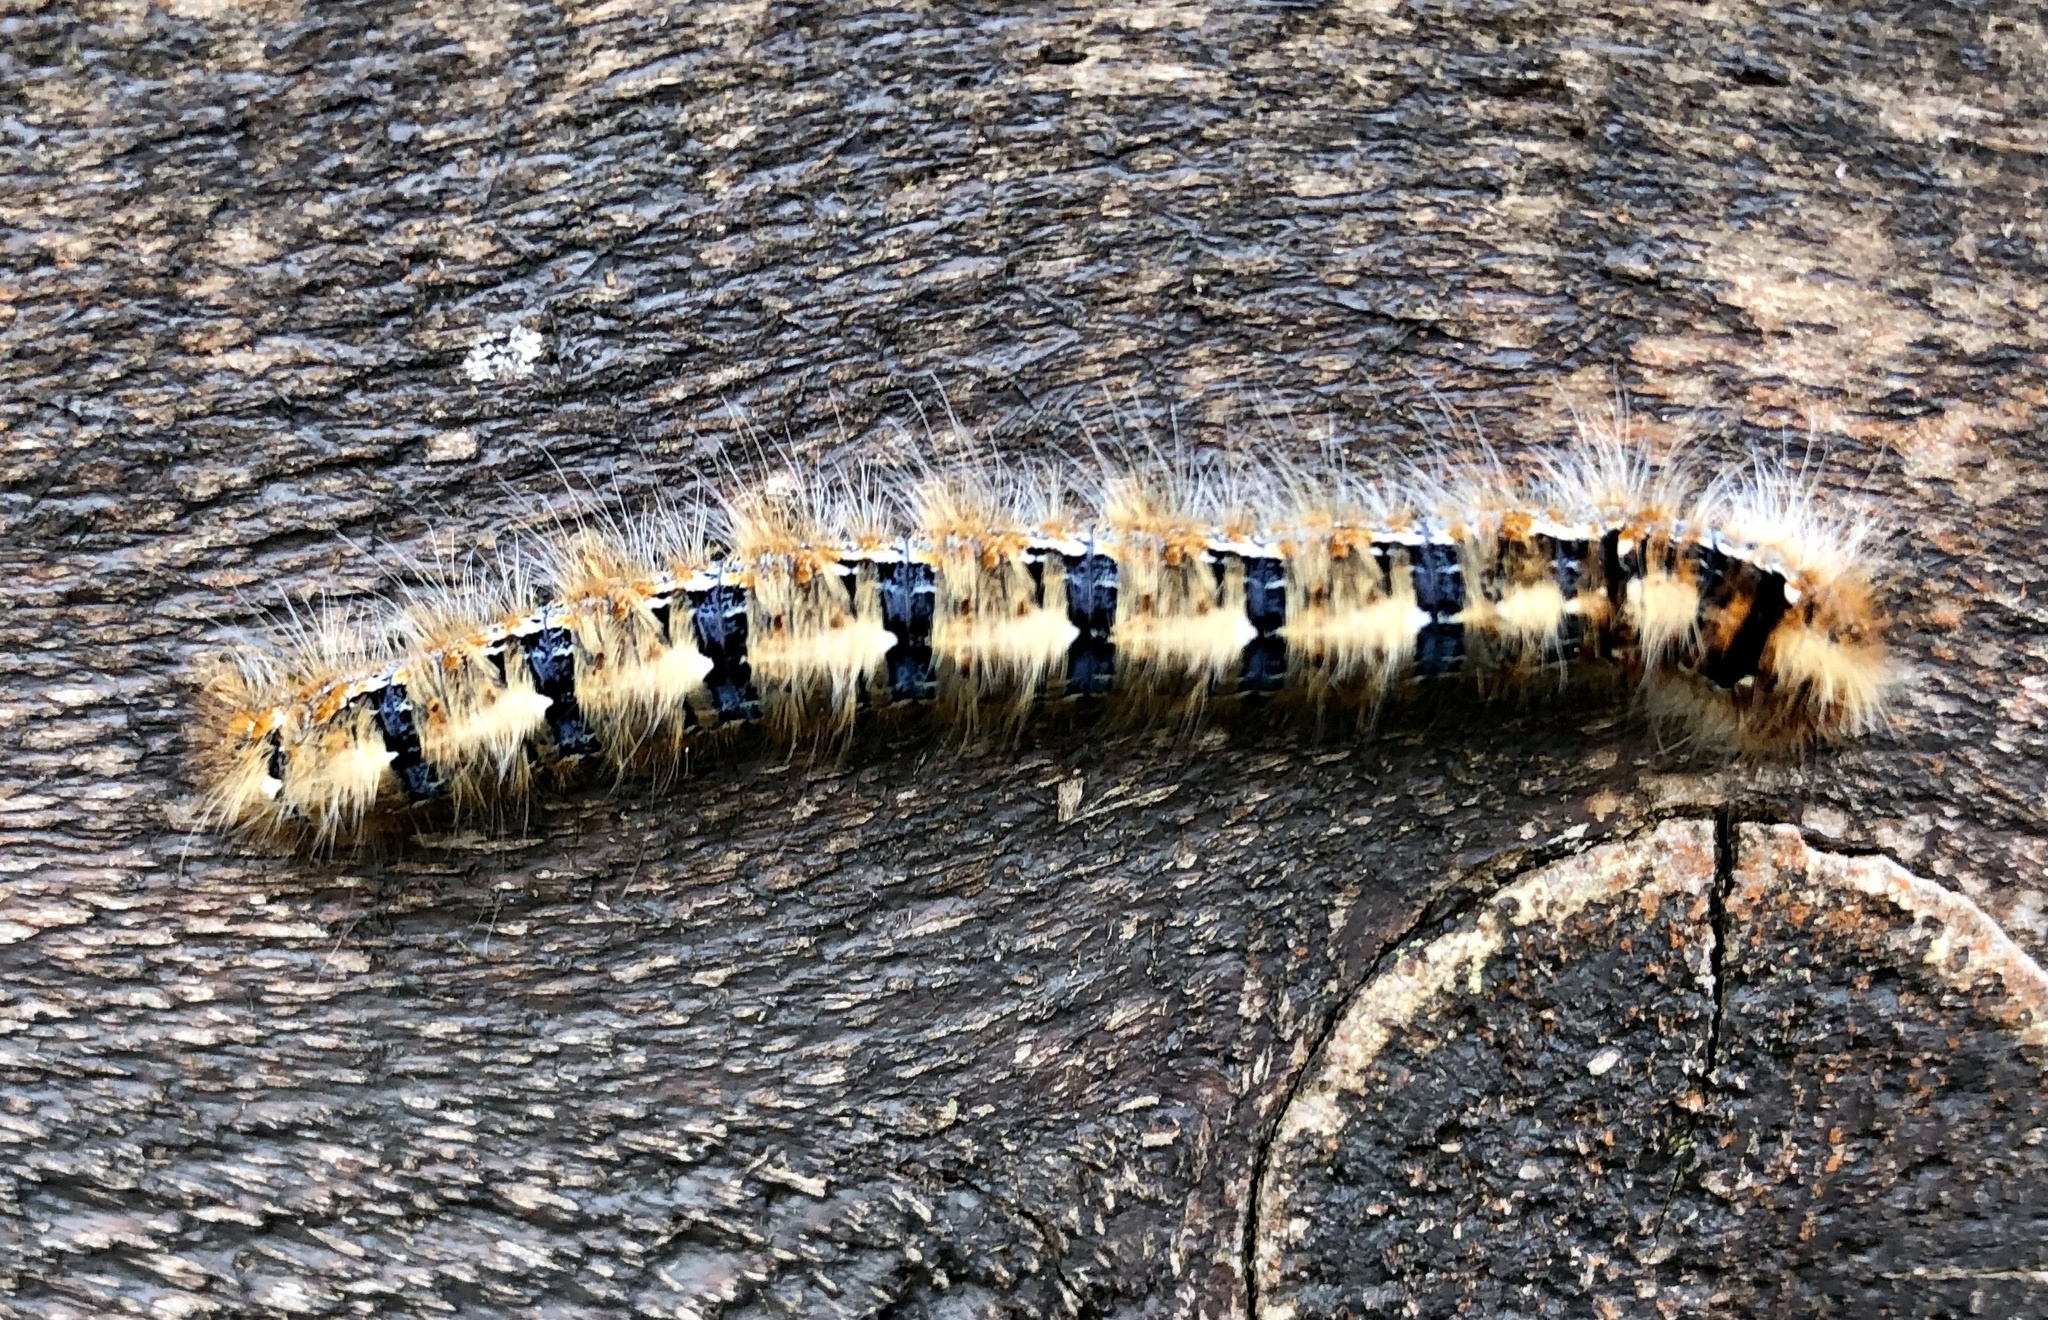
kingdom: Animalia
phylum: Arthropoda
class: Insecta
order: Lepidoptera
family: Lasiocampidae
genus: Lasiocampa
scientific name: Lasiocampa quercus
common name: Oak eggar
